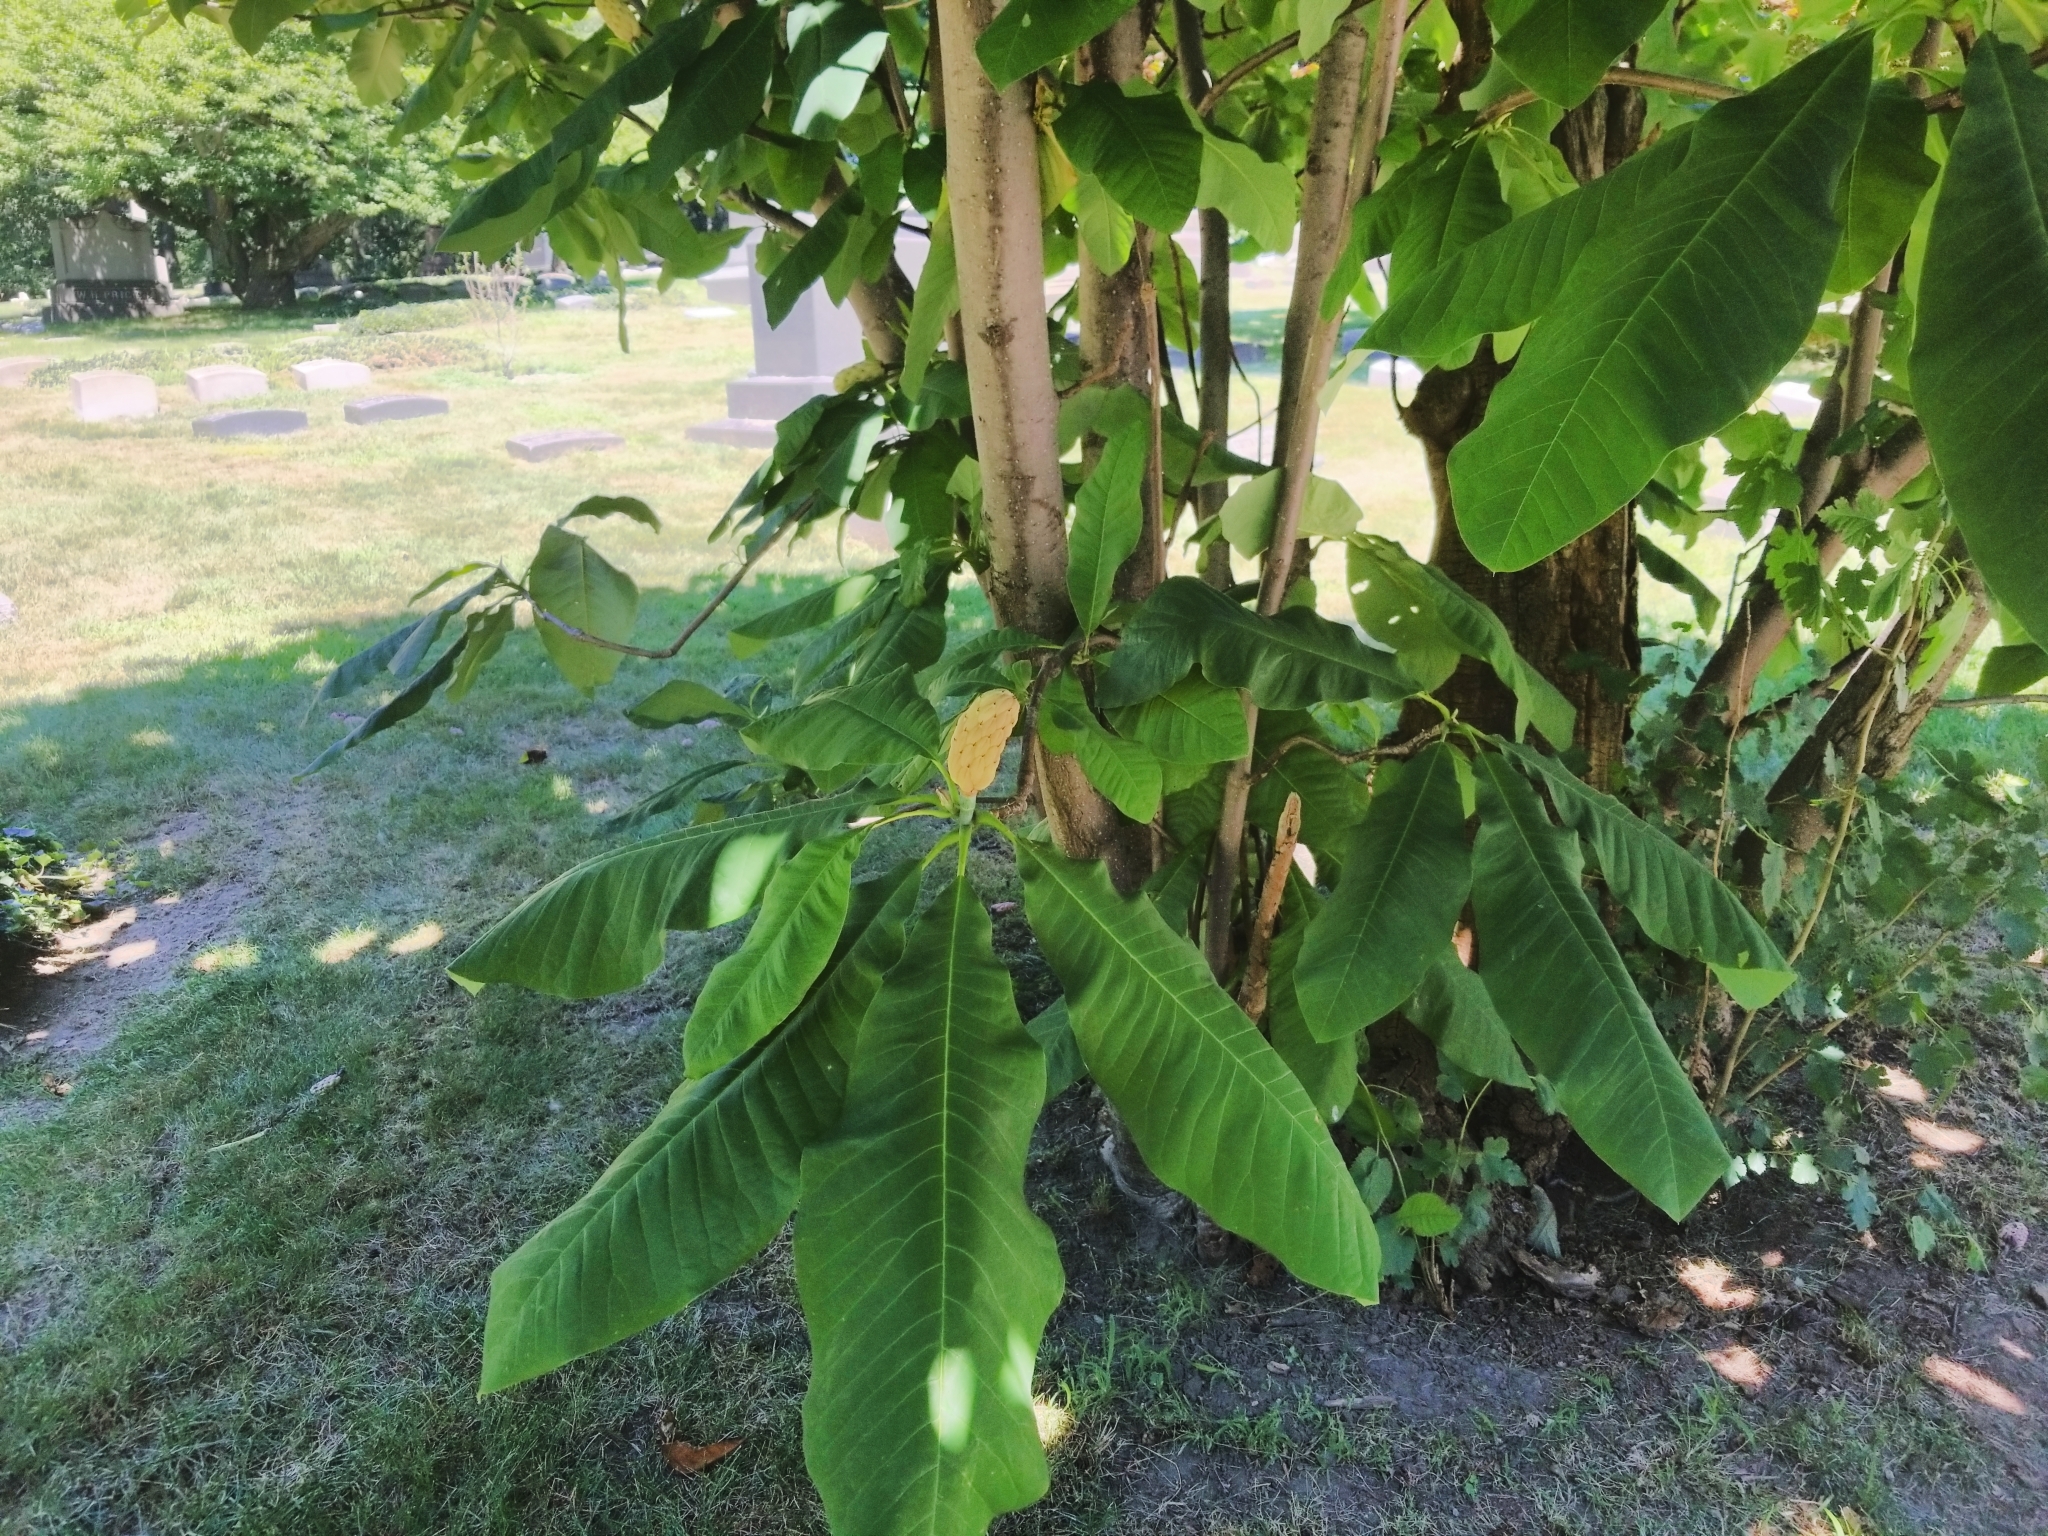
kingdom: Plantae
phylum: Tracheophyta
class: Magnoliopsida
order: Magnoliales
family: Magnoliaceae
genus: Magnolia
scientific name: Magnolia tripetala
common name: Umbrella magnolia
